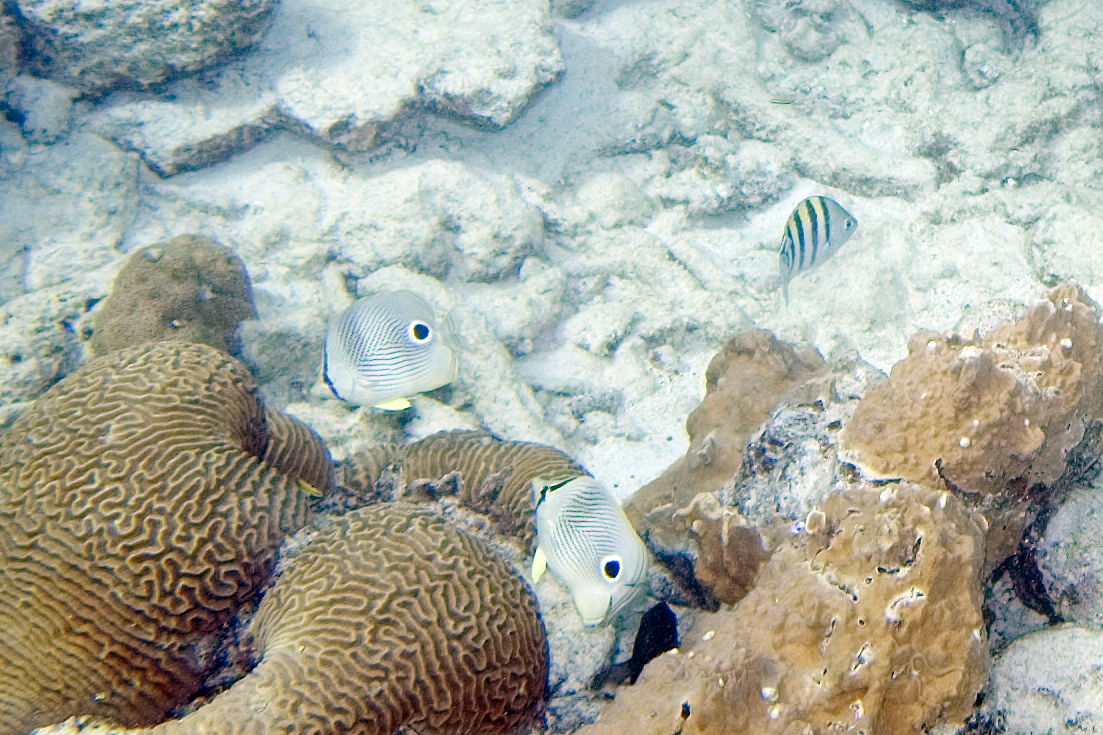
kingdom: Animalia
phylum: Chordata
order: Perciformes
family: Chaetodontidae
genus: Chaetodon
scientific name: Chaetodon capistratus
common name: Kete
